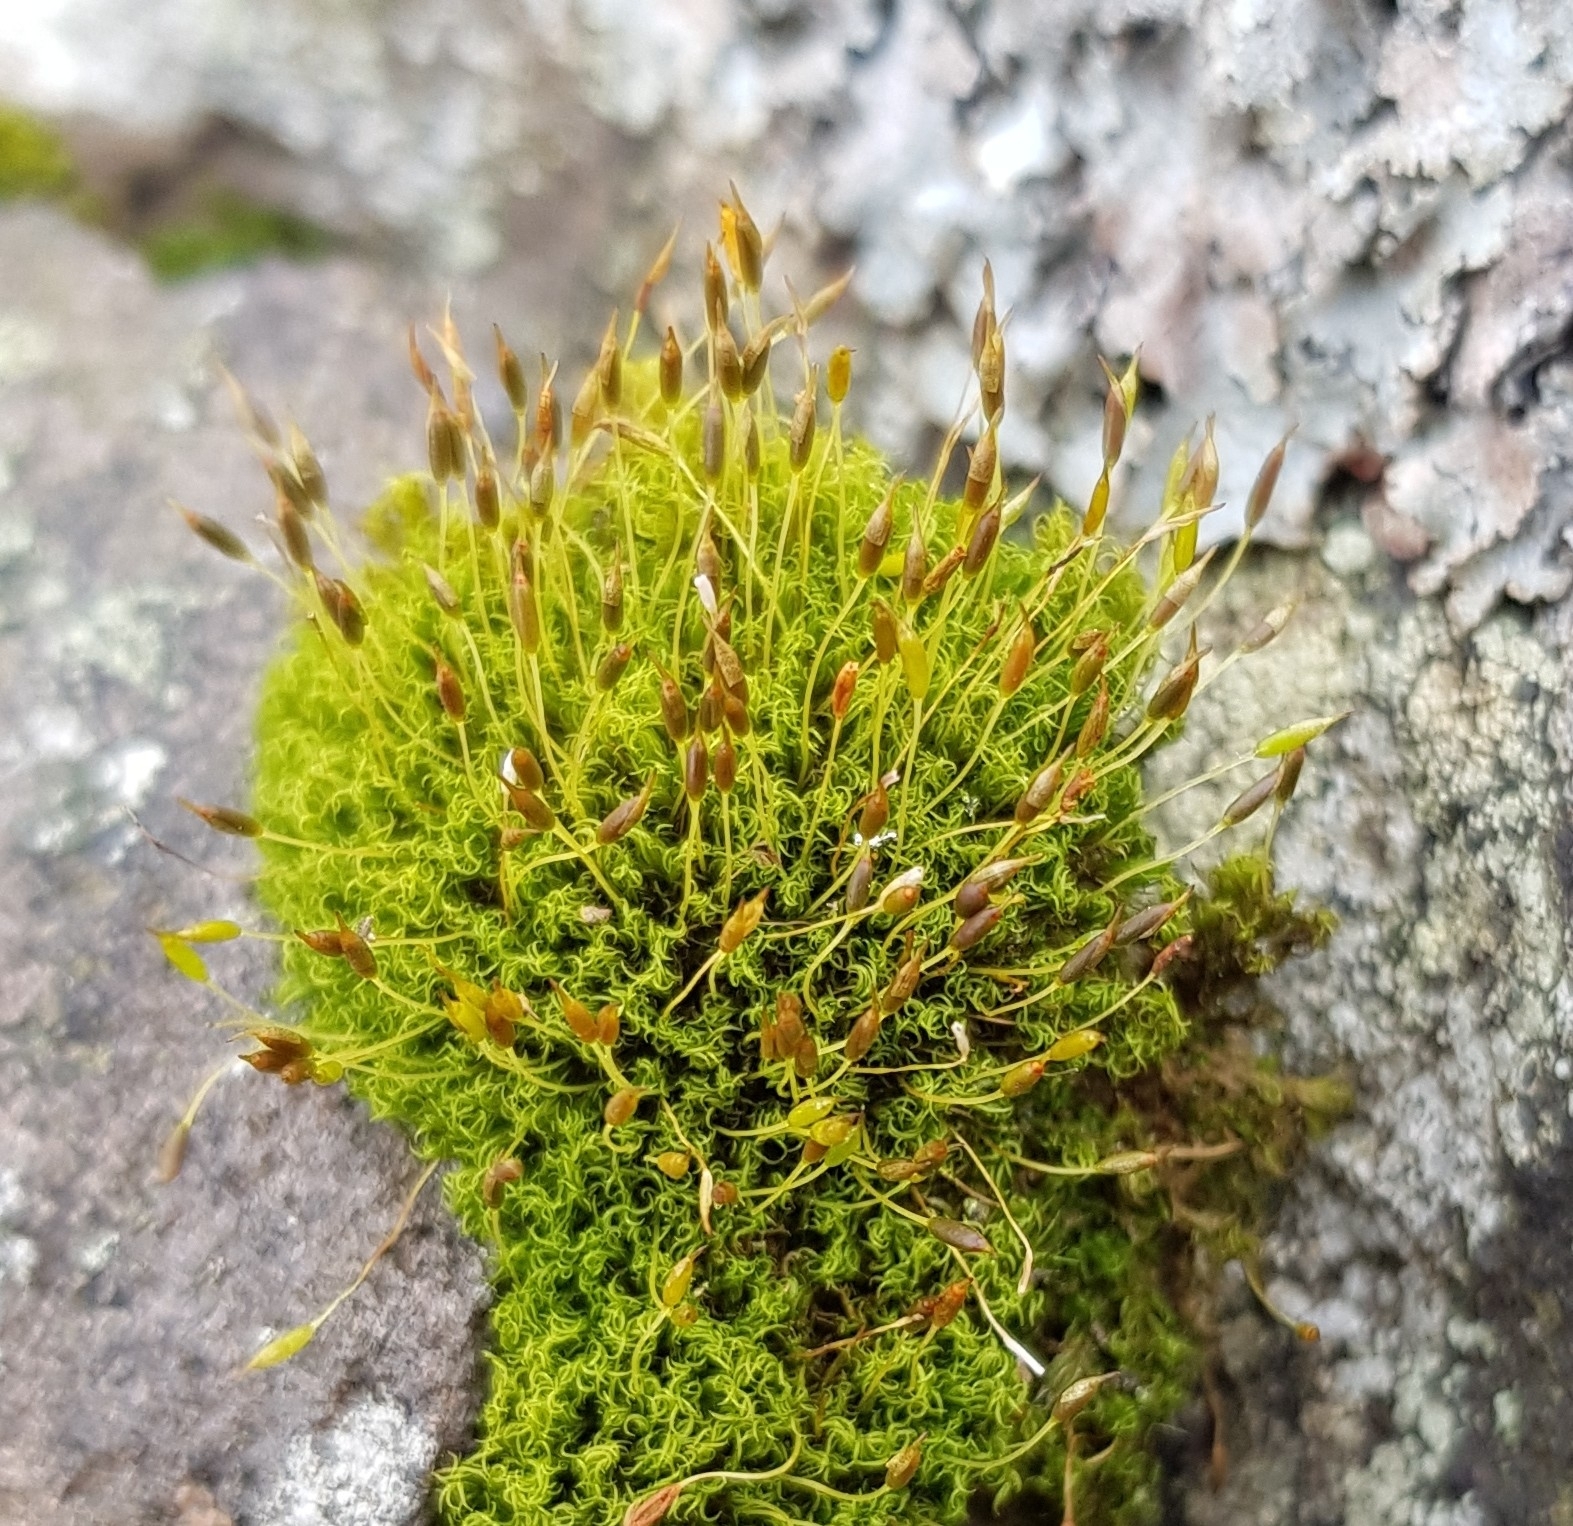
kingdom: Plantae
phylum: Bryophyta
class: Bryopsida
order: Dicranales
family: Rhabdoweisiaceae
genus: Dicranoweisia
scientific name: Dicranoweisia cirrata
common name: Common pincushion
